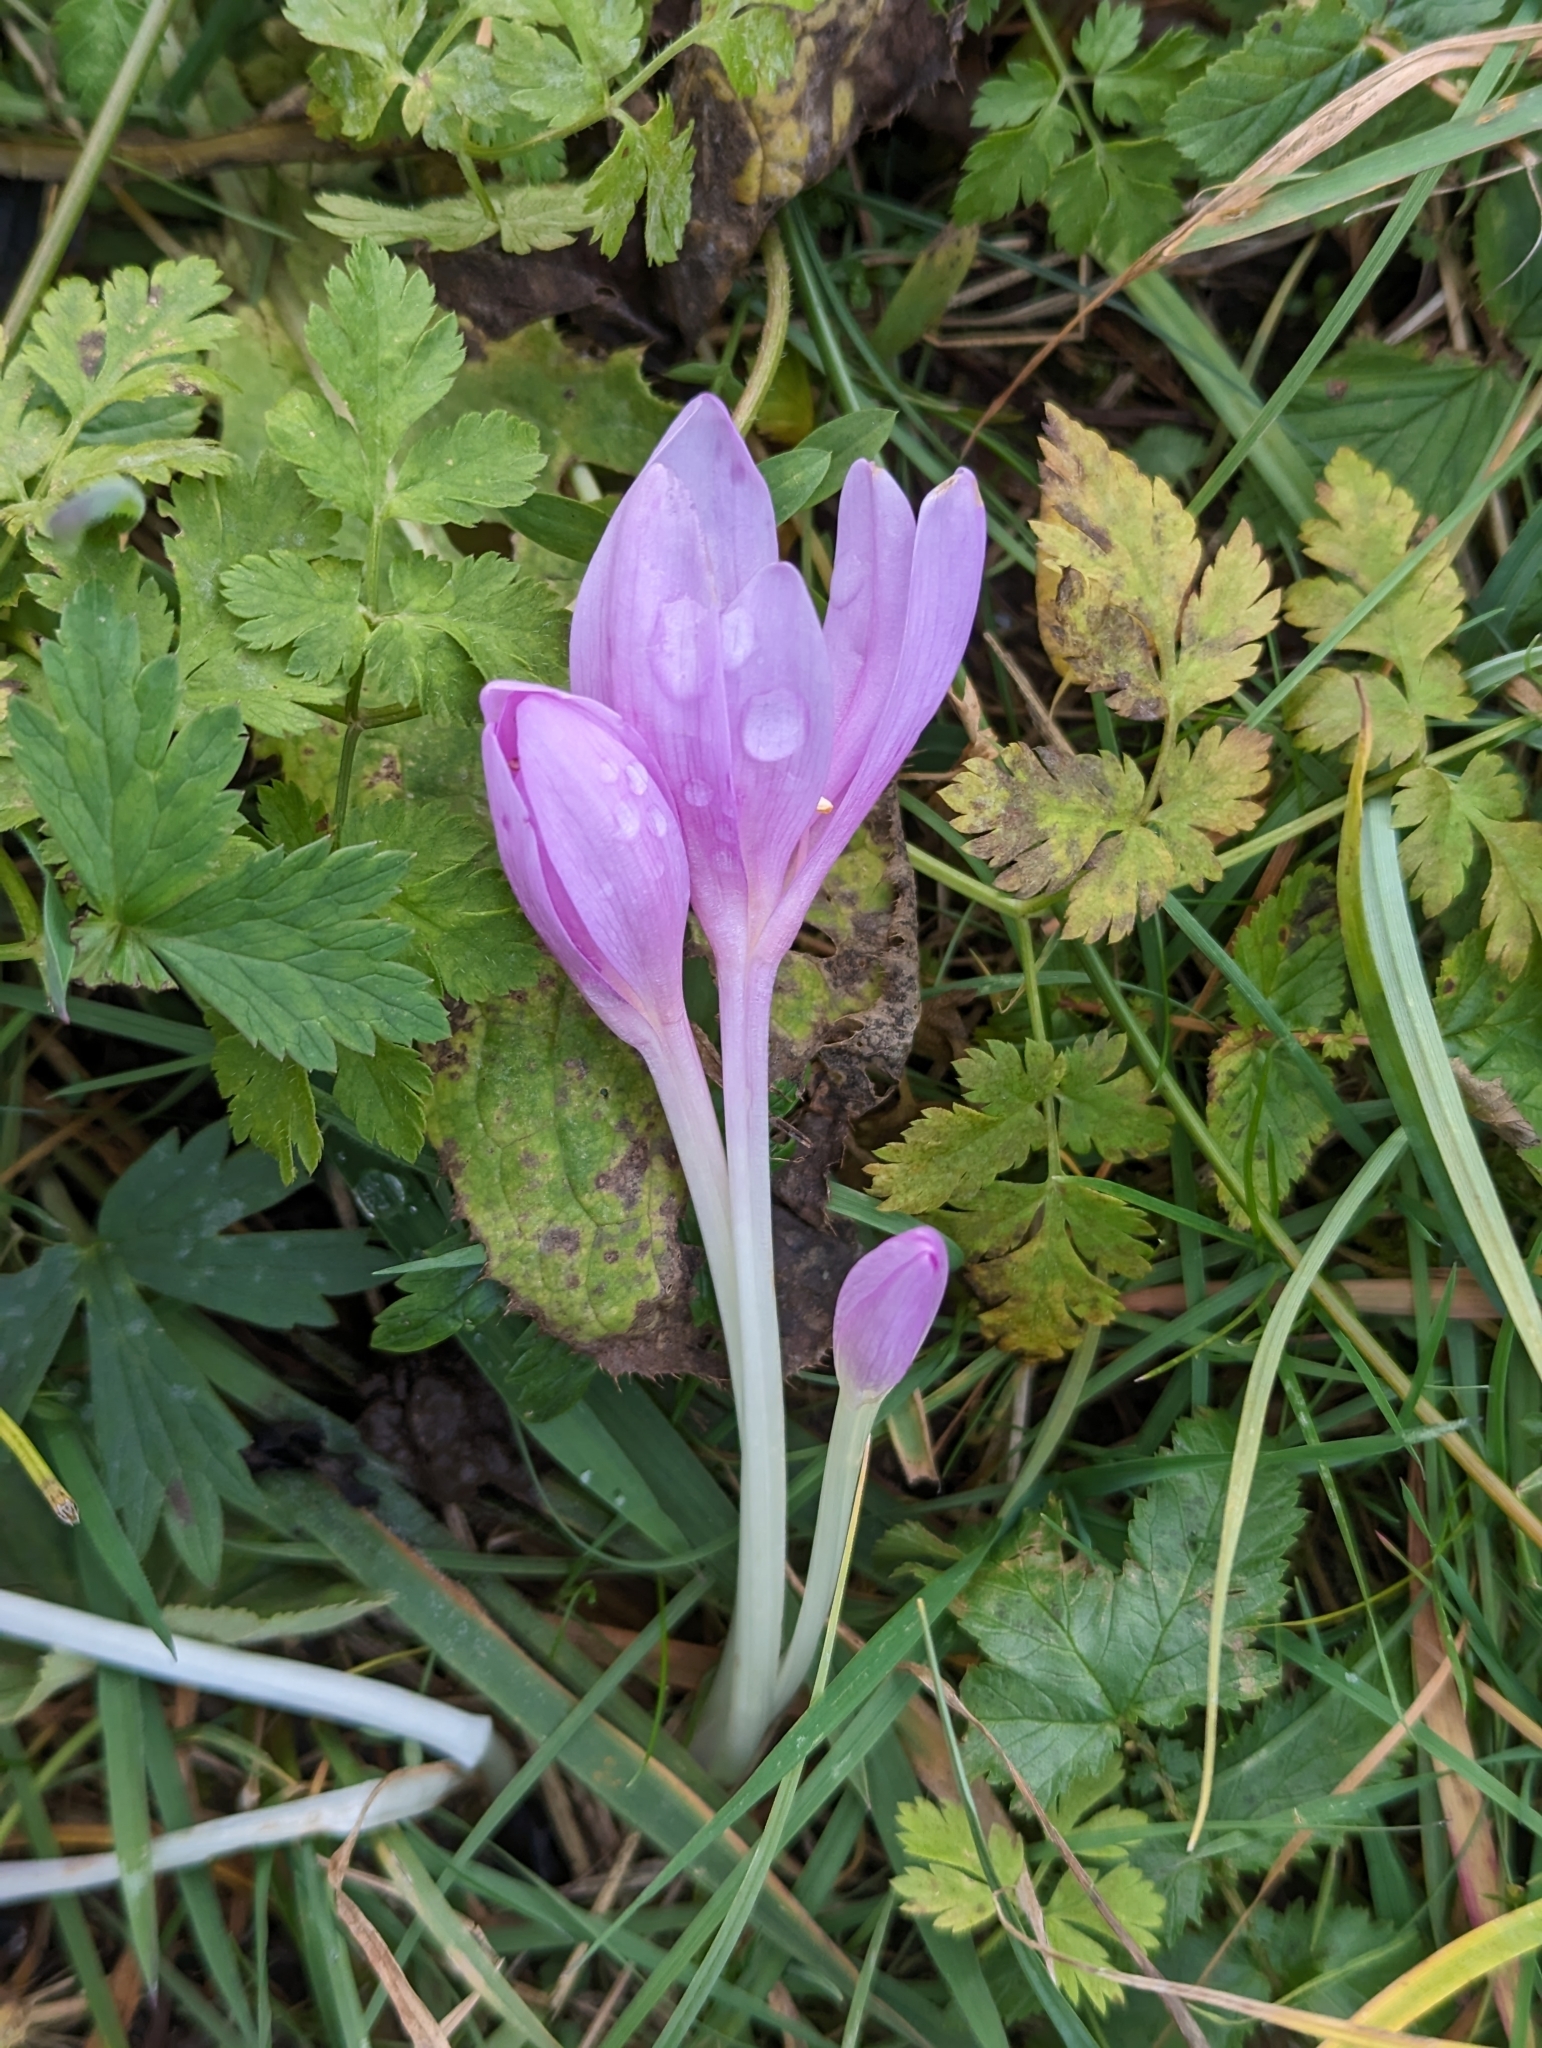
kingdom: Plantae
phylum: Tracheophyta
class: Liliopsida
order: Liliales
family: Colchicaceae
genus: Colchicum
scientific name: Colchicum autumnale
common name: Autumn crocus
